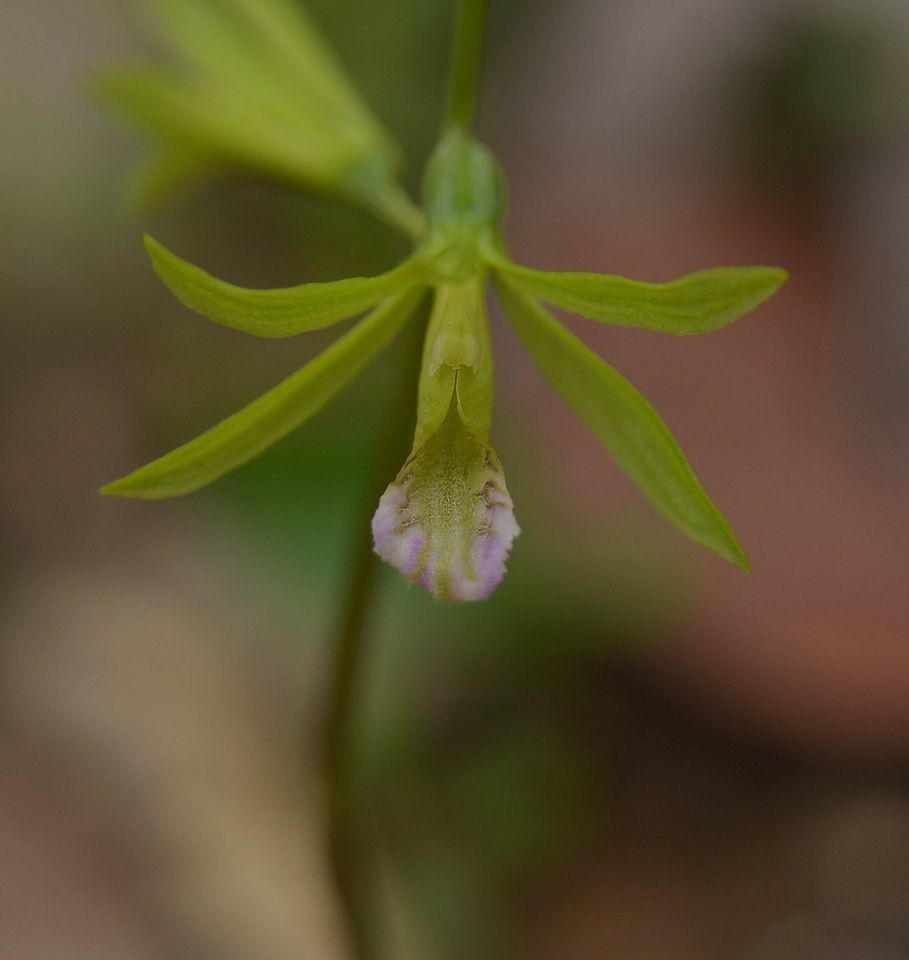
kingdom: Plantae
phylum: Tracheophyta
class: Liliopsida
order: Asparagales
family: Orchidaceae
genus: Nervilia
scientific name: Nervilia concolor
